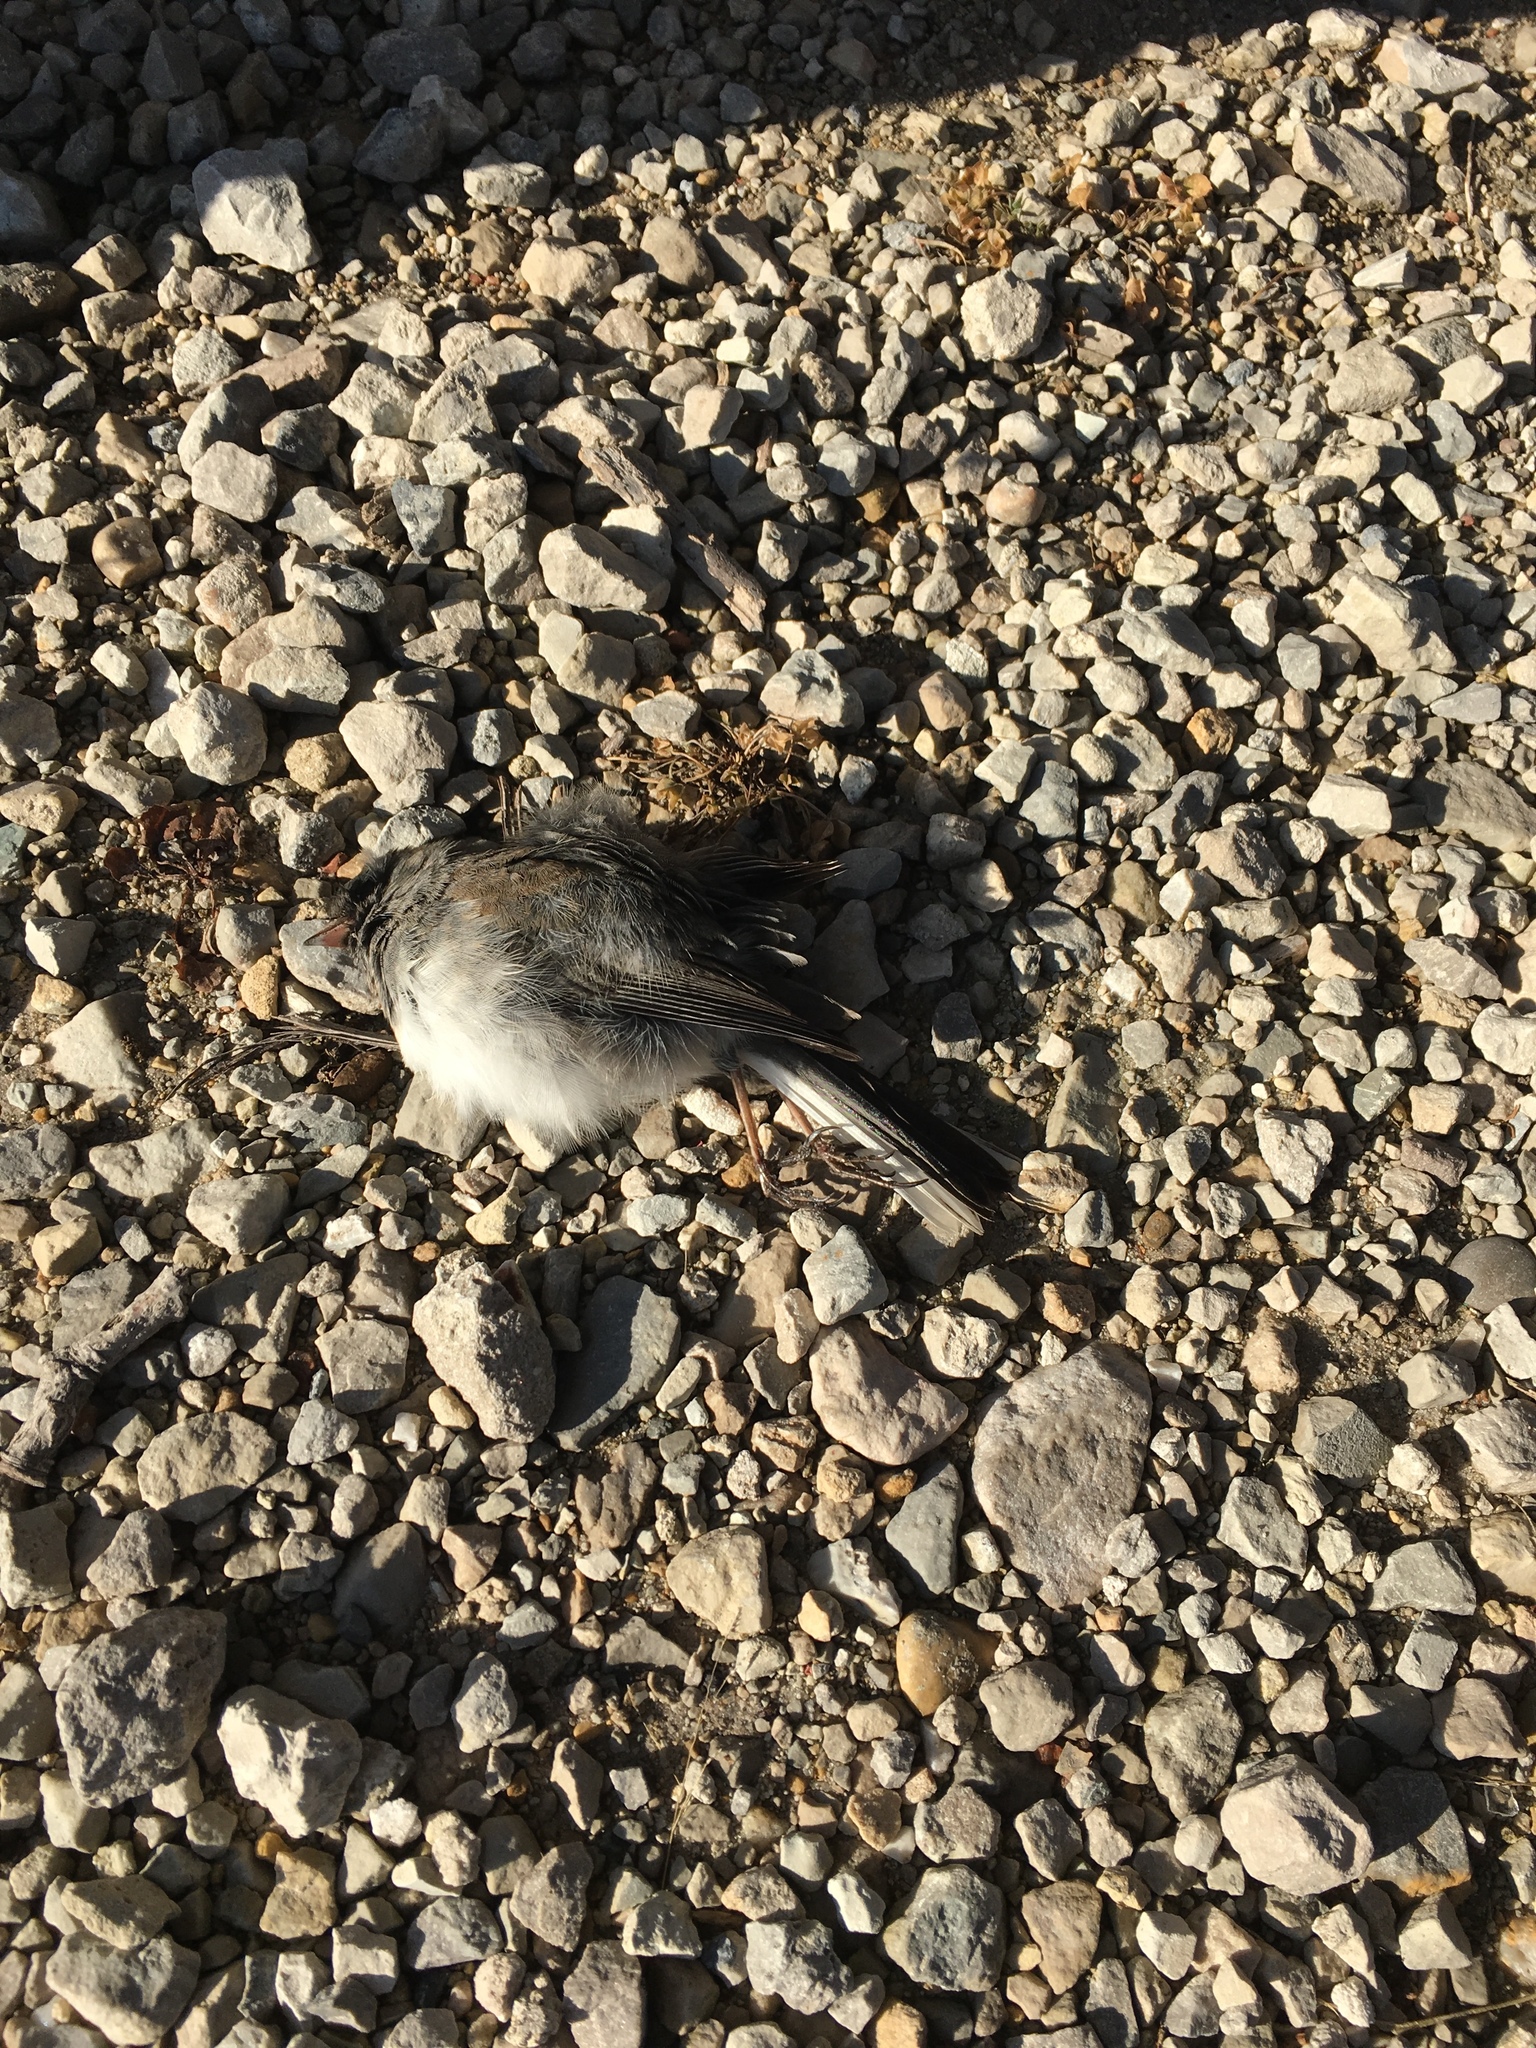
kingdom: Animalia
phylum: Chordata
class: Aves
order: Passeriformes
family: Passerellidae
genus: Junco
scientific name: Junco hyemalis
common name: Dark-eyed junco
